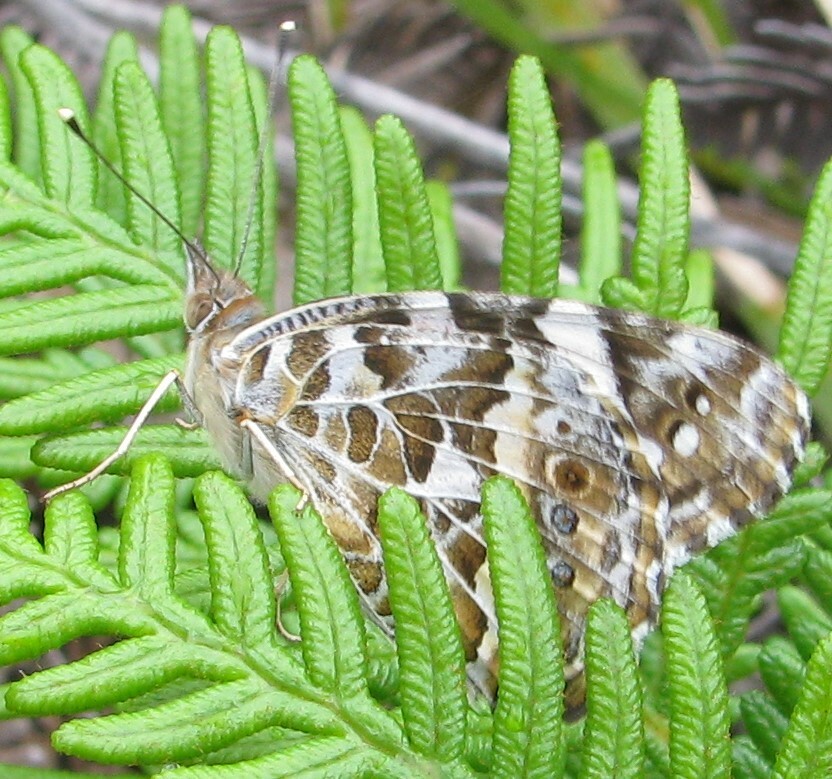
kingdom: Animalia
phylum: Arthropoda
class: Insecta
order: Lepidoptera
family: Nymphalidae
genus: Vanessa
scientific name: Vanessa kershawi
